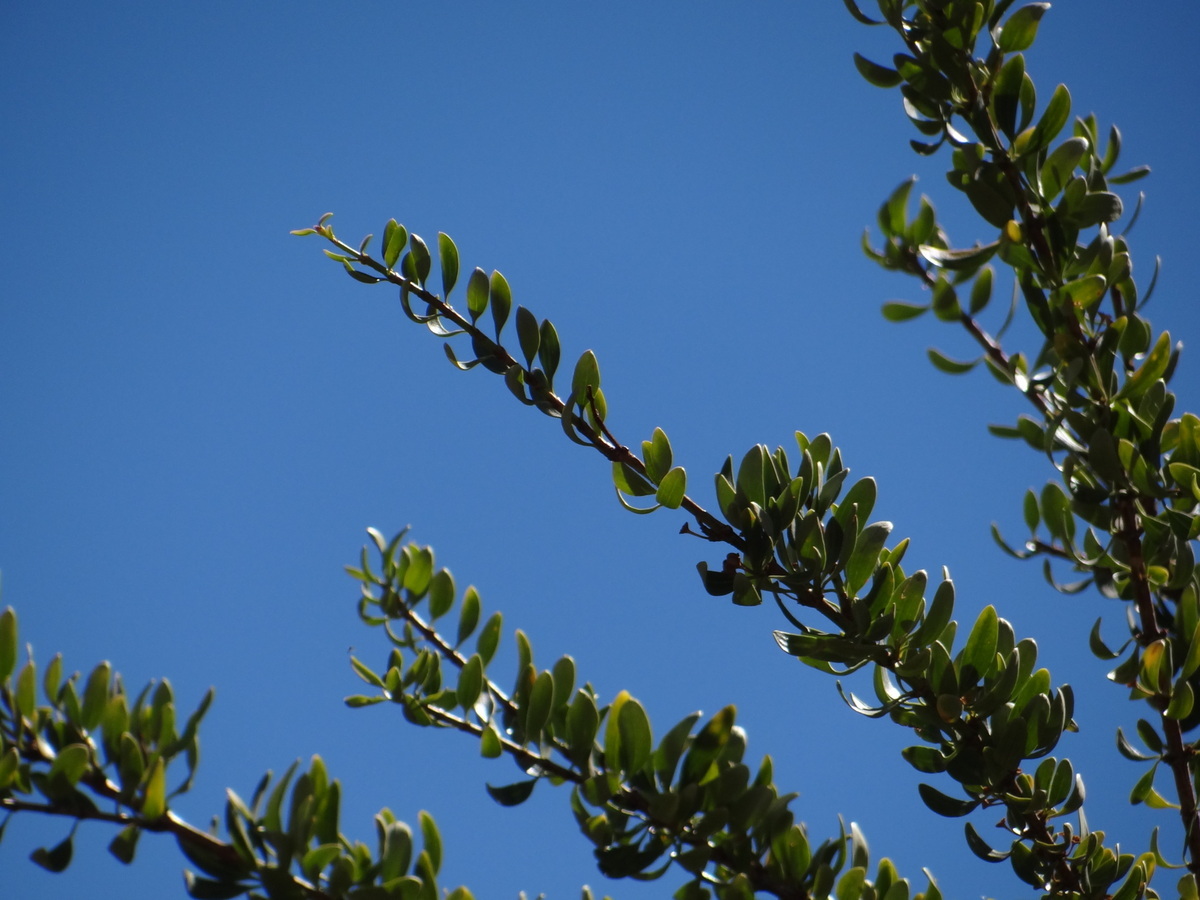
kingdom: Plantae
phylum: Tracheophyta
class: Magnoliopsida
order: Rosales
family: Rhamnaceae
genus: Ochetophila
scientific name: Ochetophila trinervis
